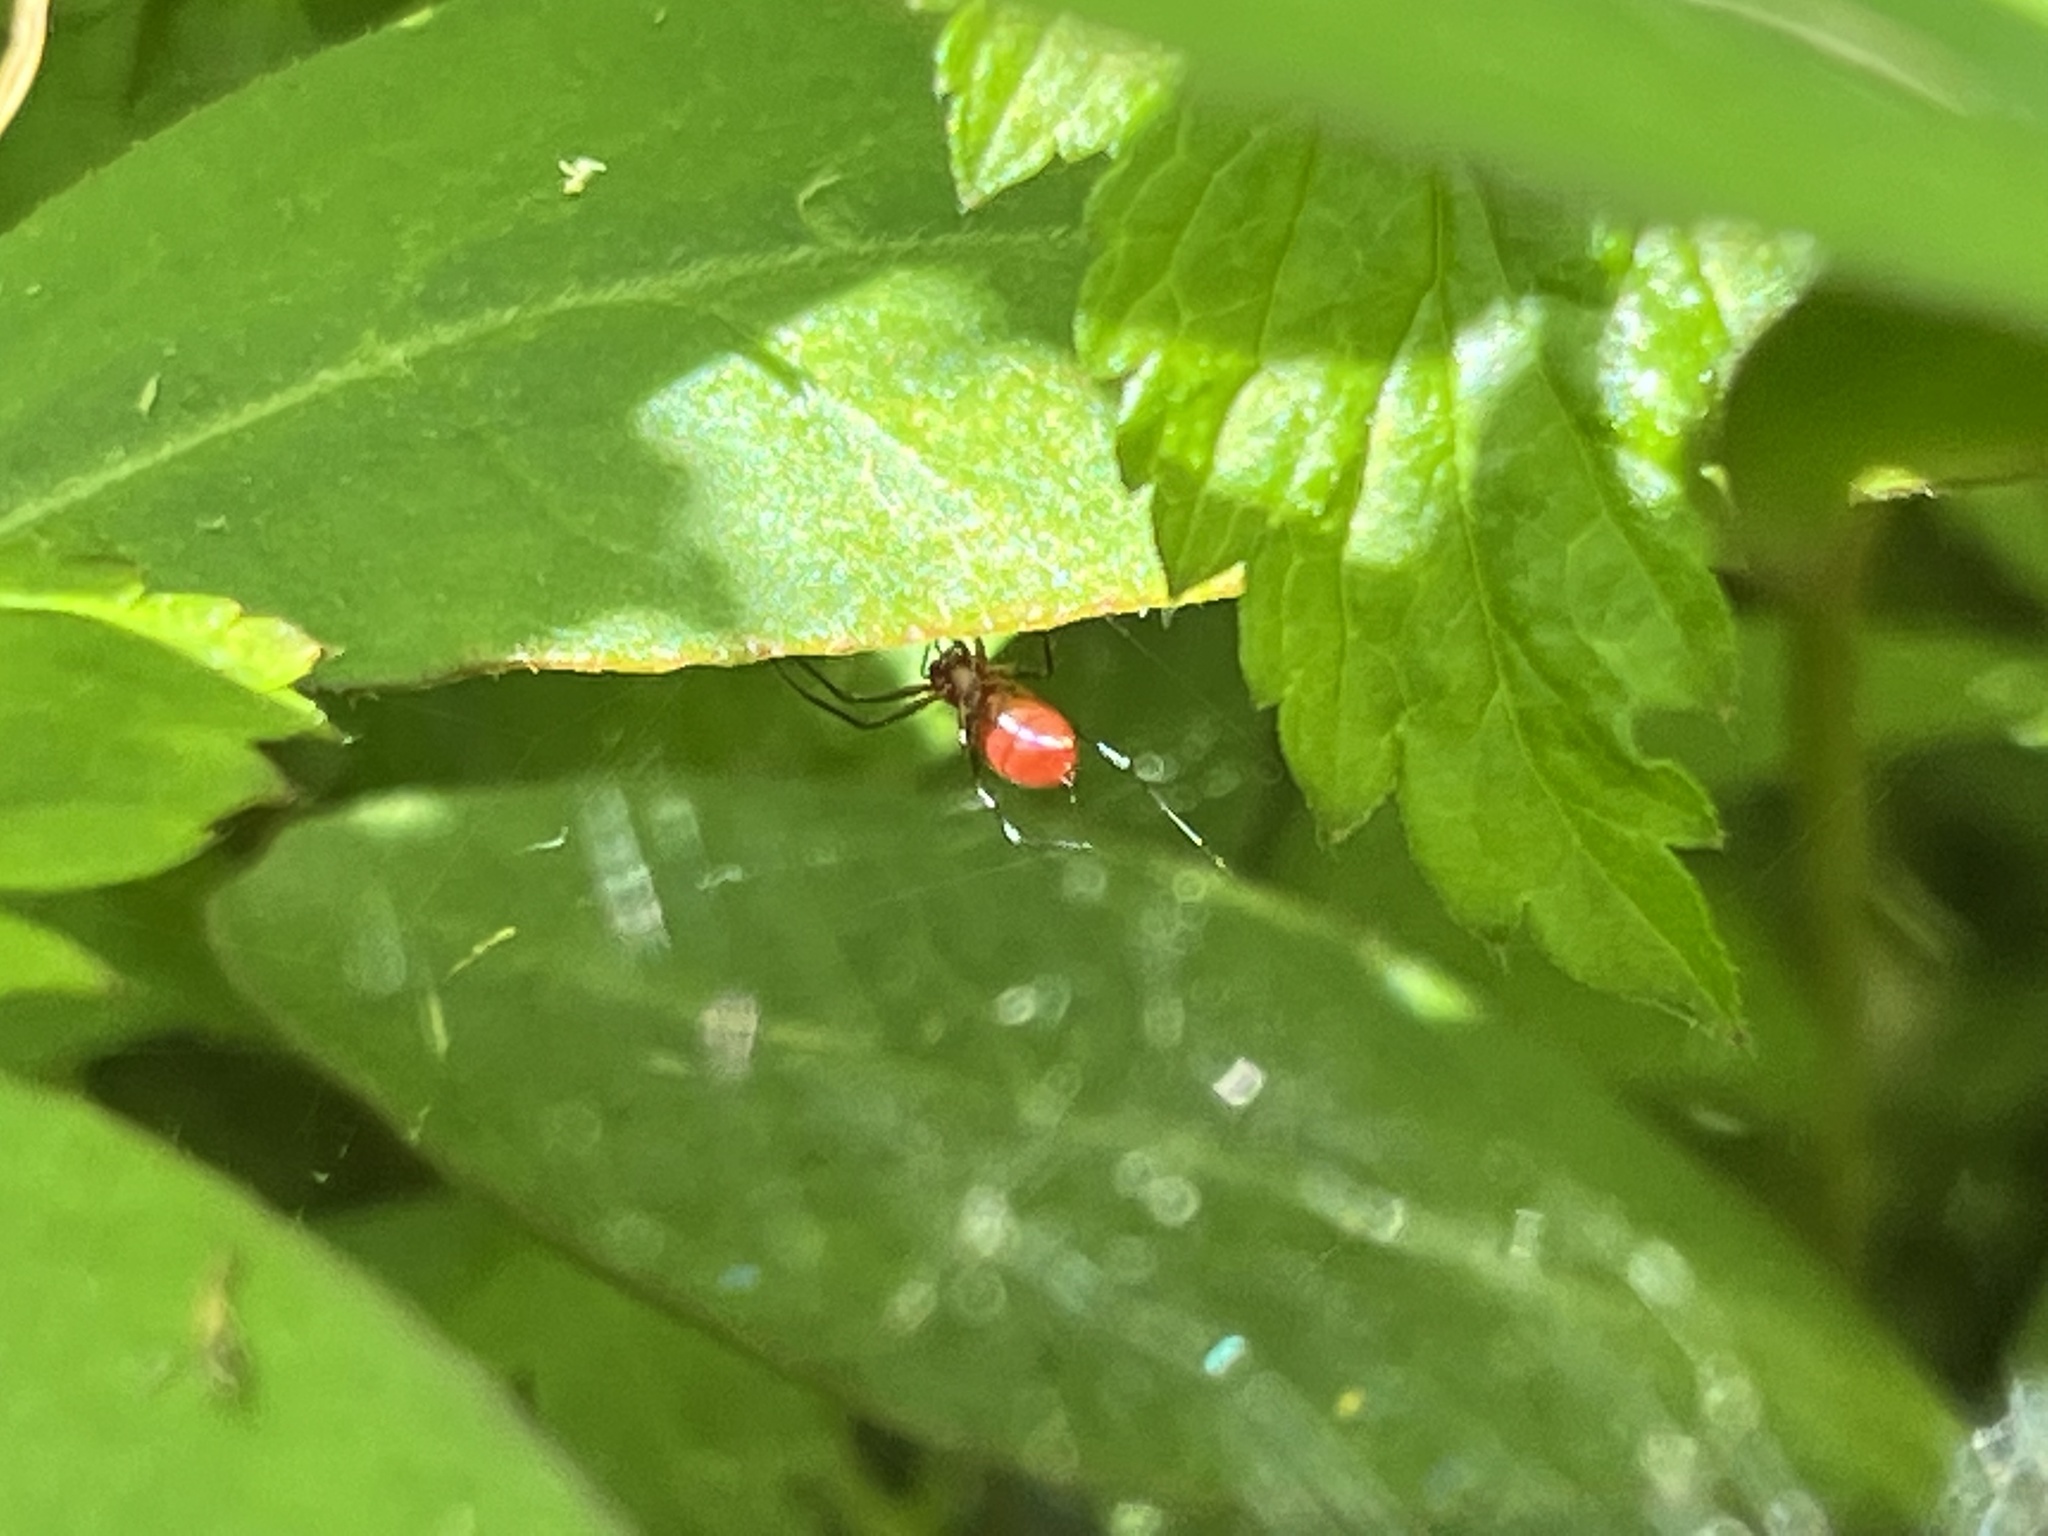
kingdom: Animalia
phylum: Arthropoda
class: Arachnida
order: Araneae
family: Linyphiidae
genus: Florinda
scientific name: Florinda coccinea
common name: Black-tailed red sheetweaver
